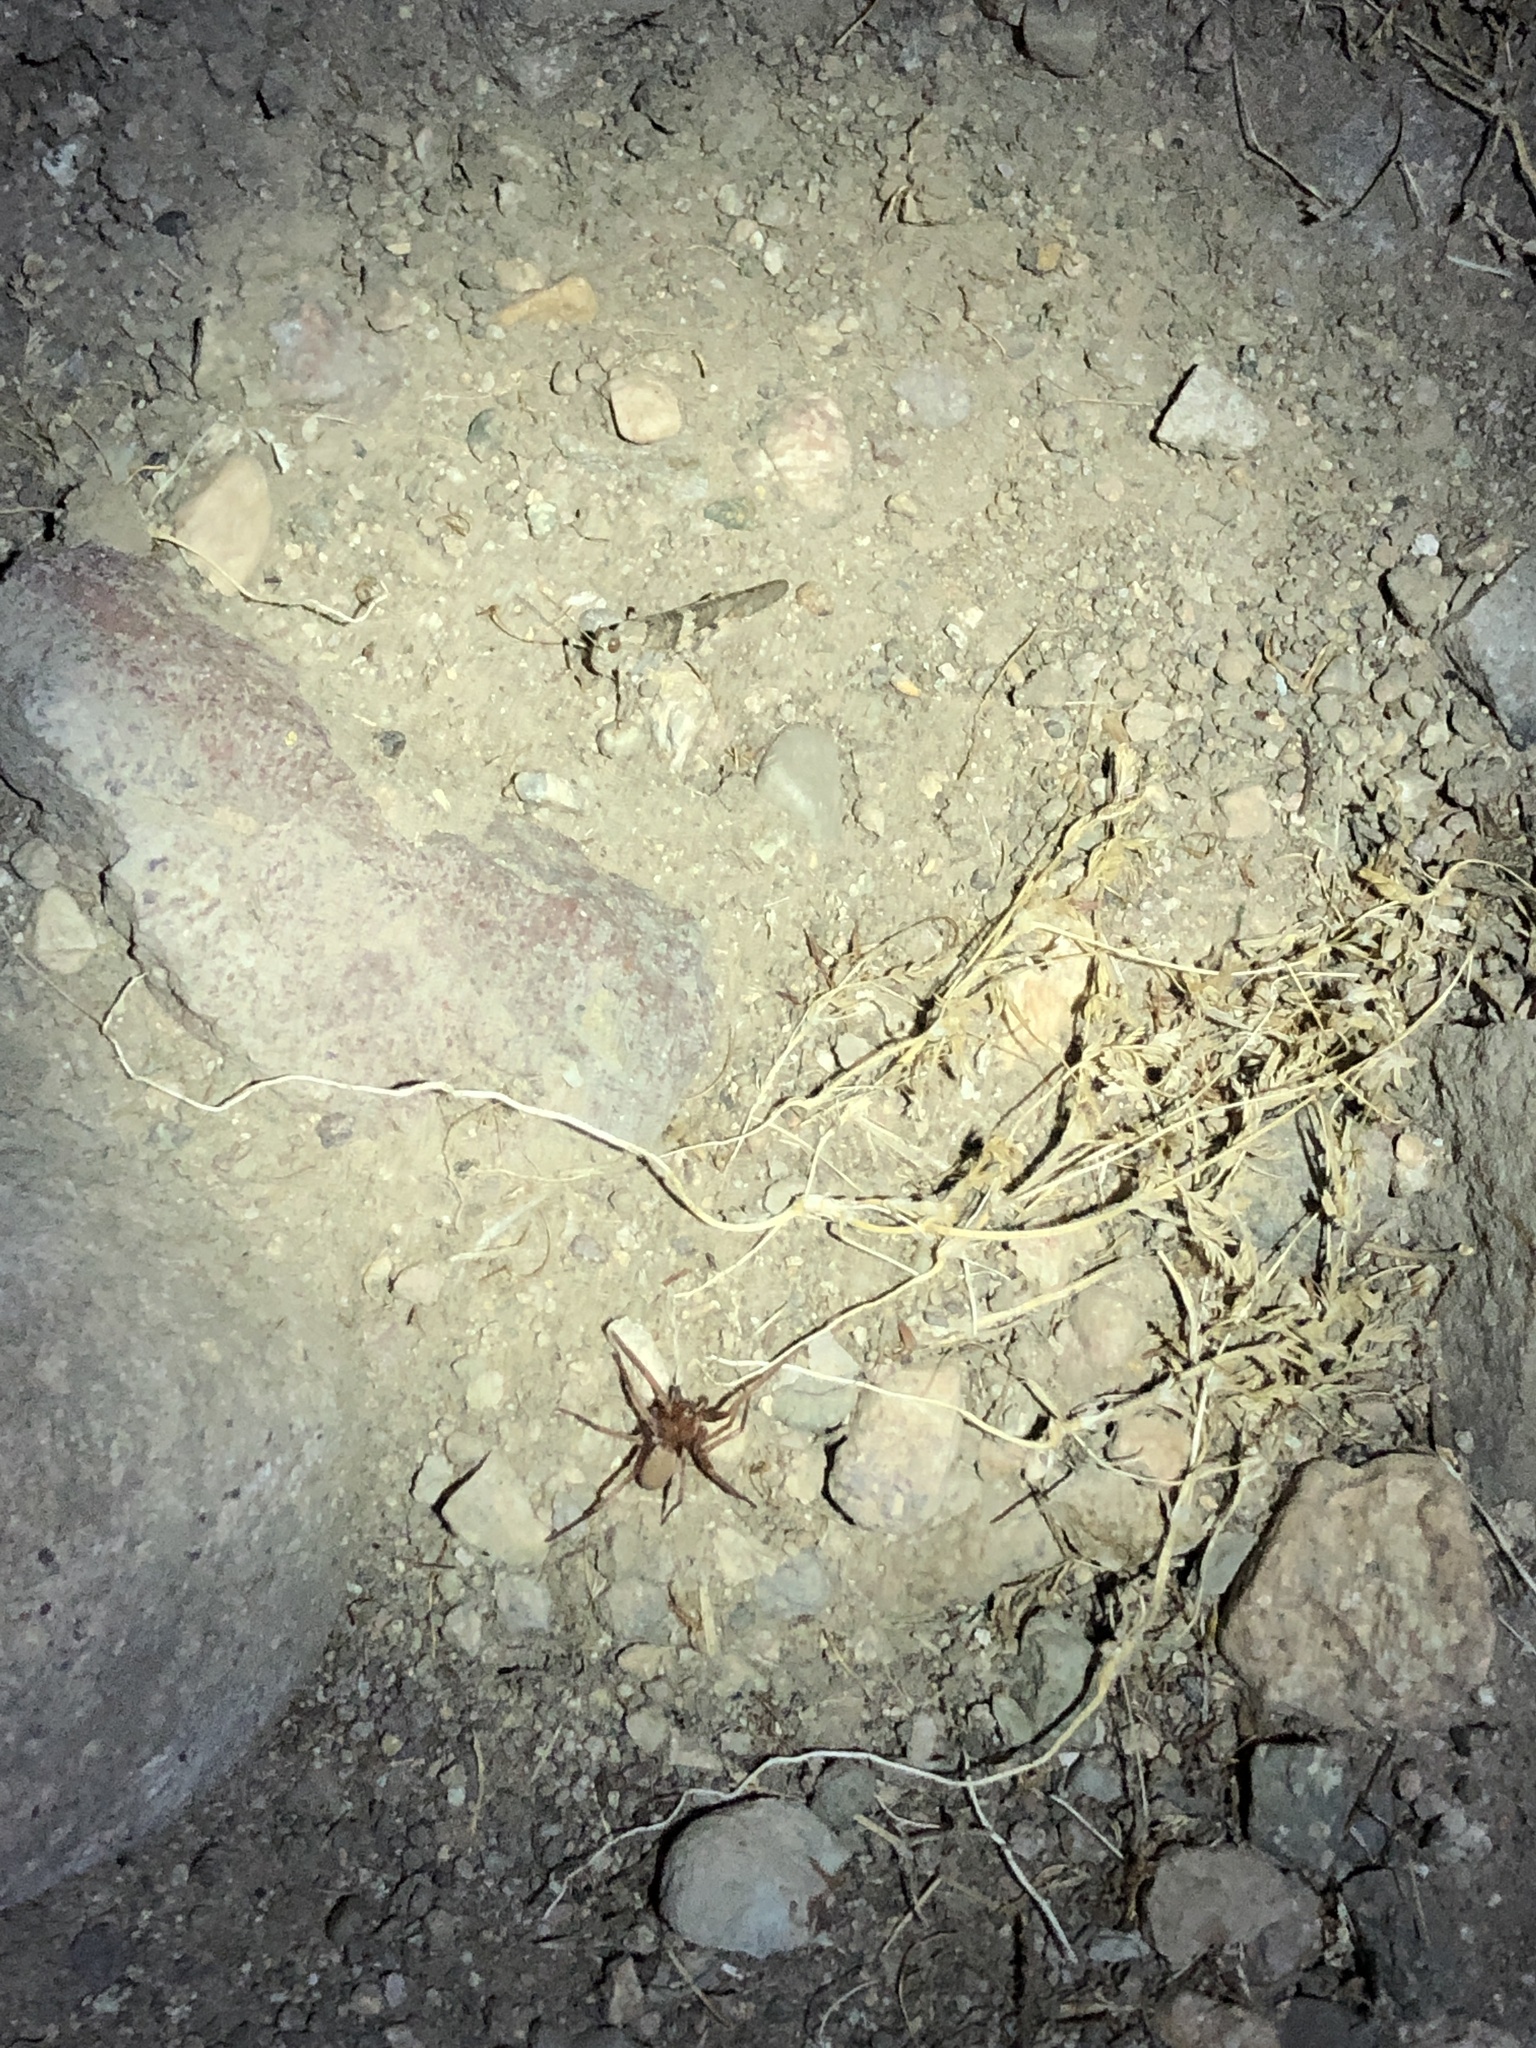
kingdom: Animalia
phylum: Arthropoda
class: Insecta
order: Orthoptera
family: Acrididae
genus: Trimerotropis
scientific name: Trimerotropis pallidipennis
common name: Pallid-winged grasshopper
